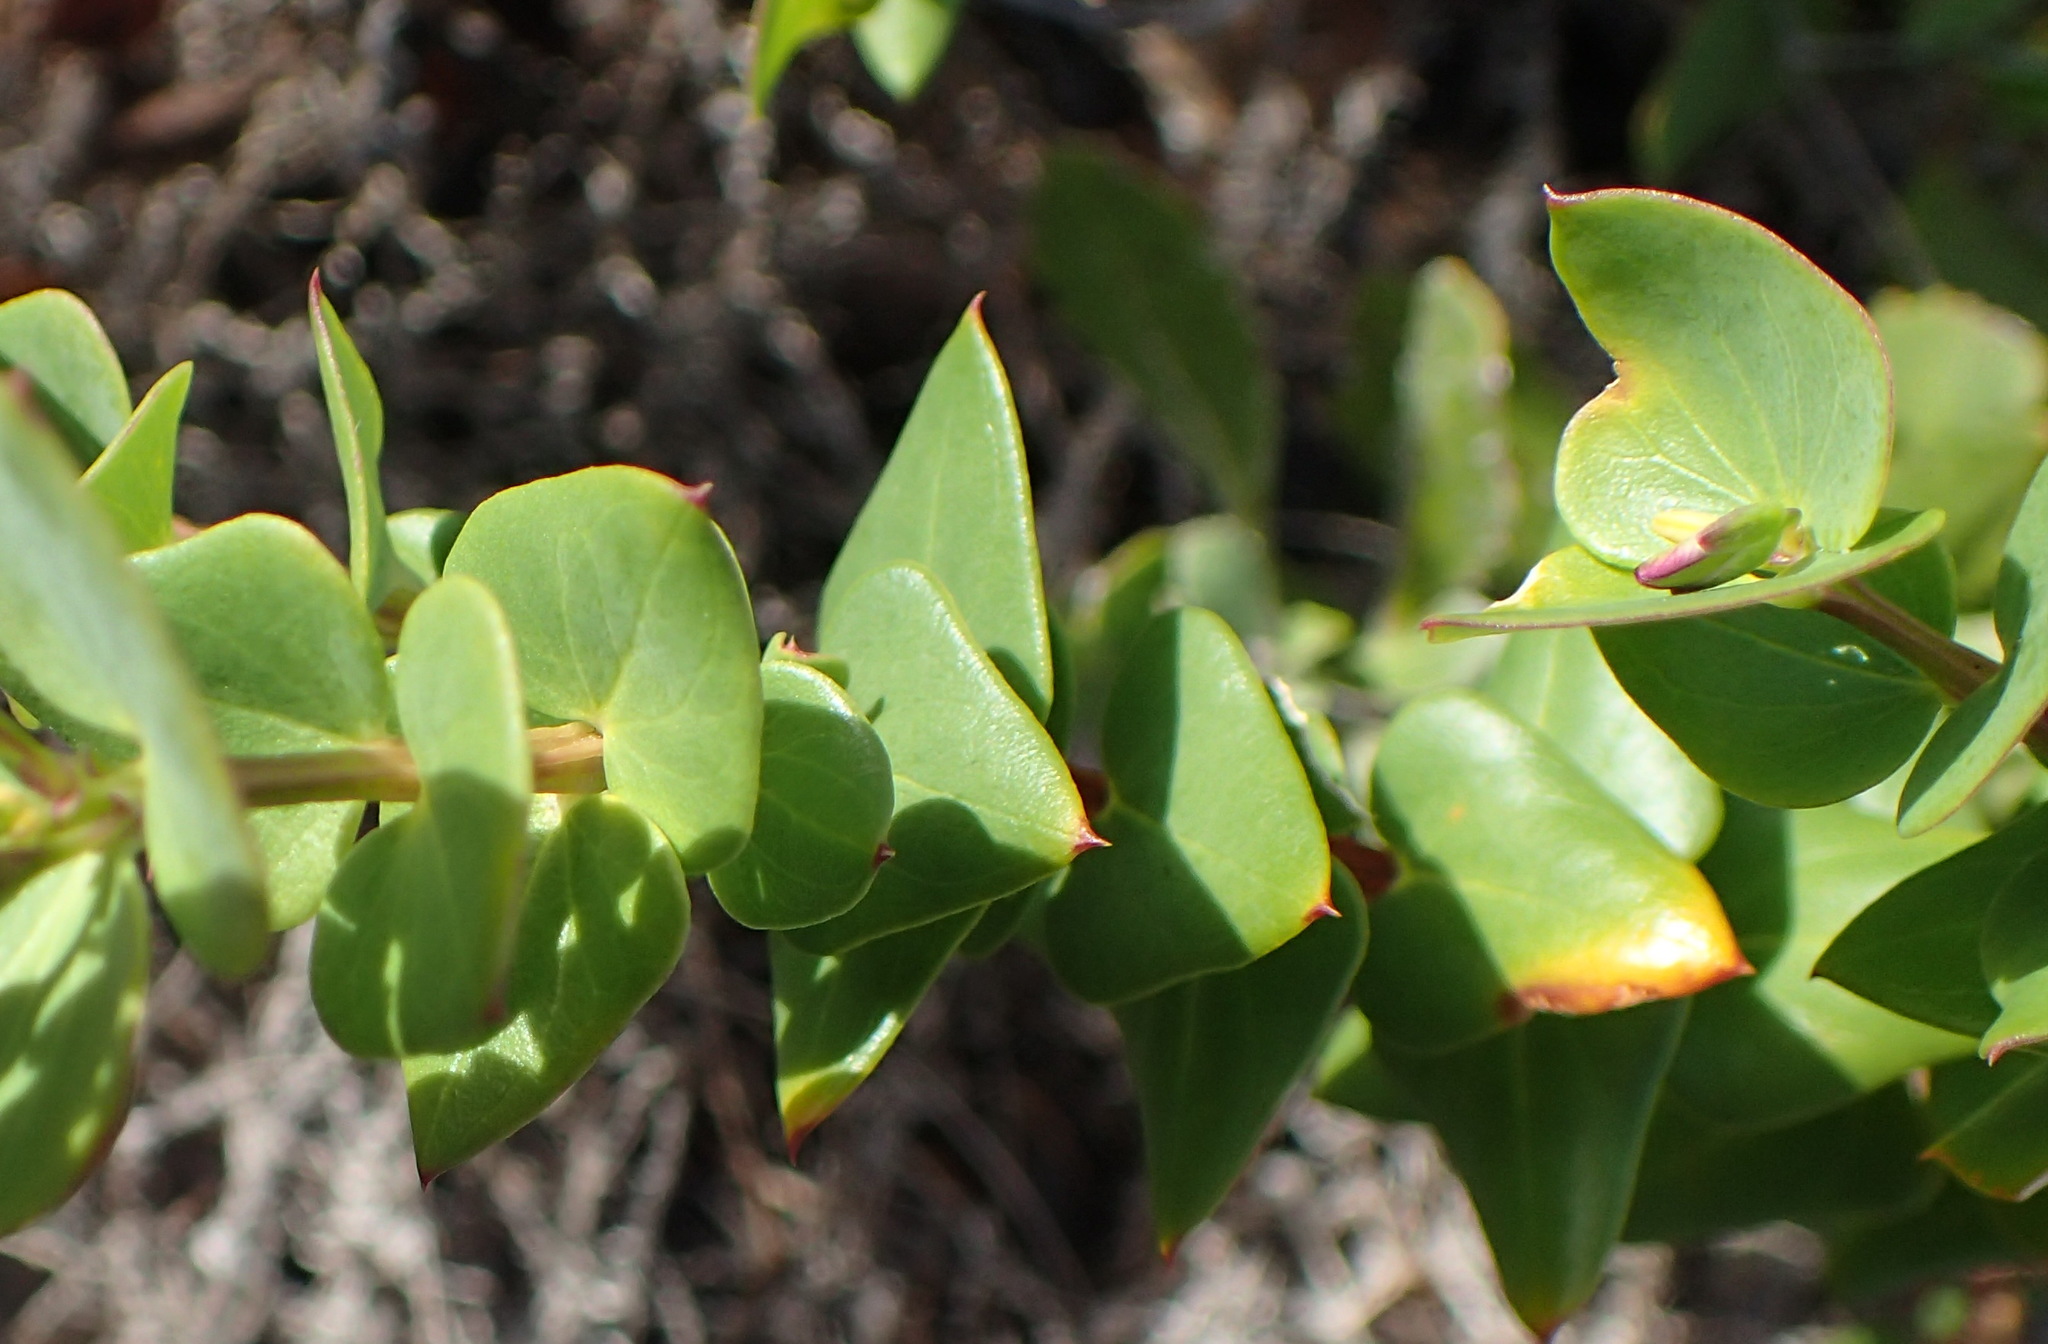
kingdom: Plantae
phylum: Tracheophyta
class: Magnoliopsida
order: Fabales
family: Polygalaceae
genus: Polygala
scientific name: Polygala fruticosa
